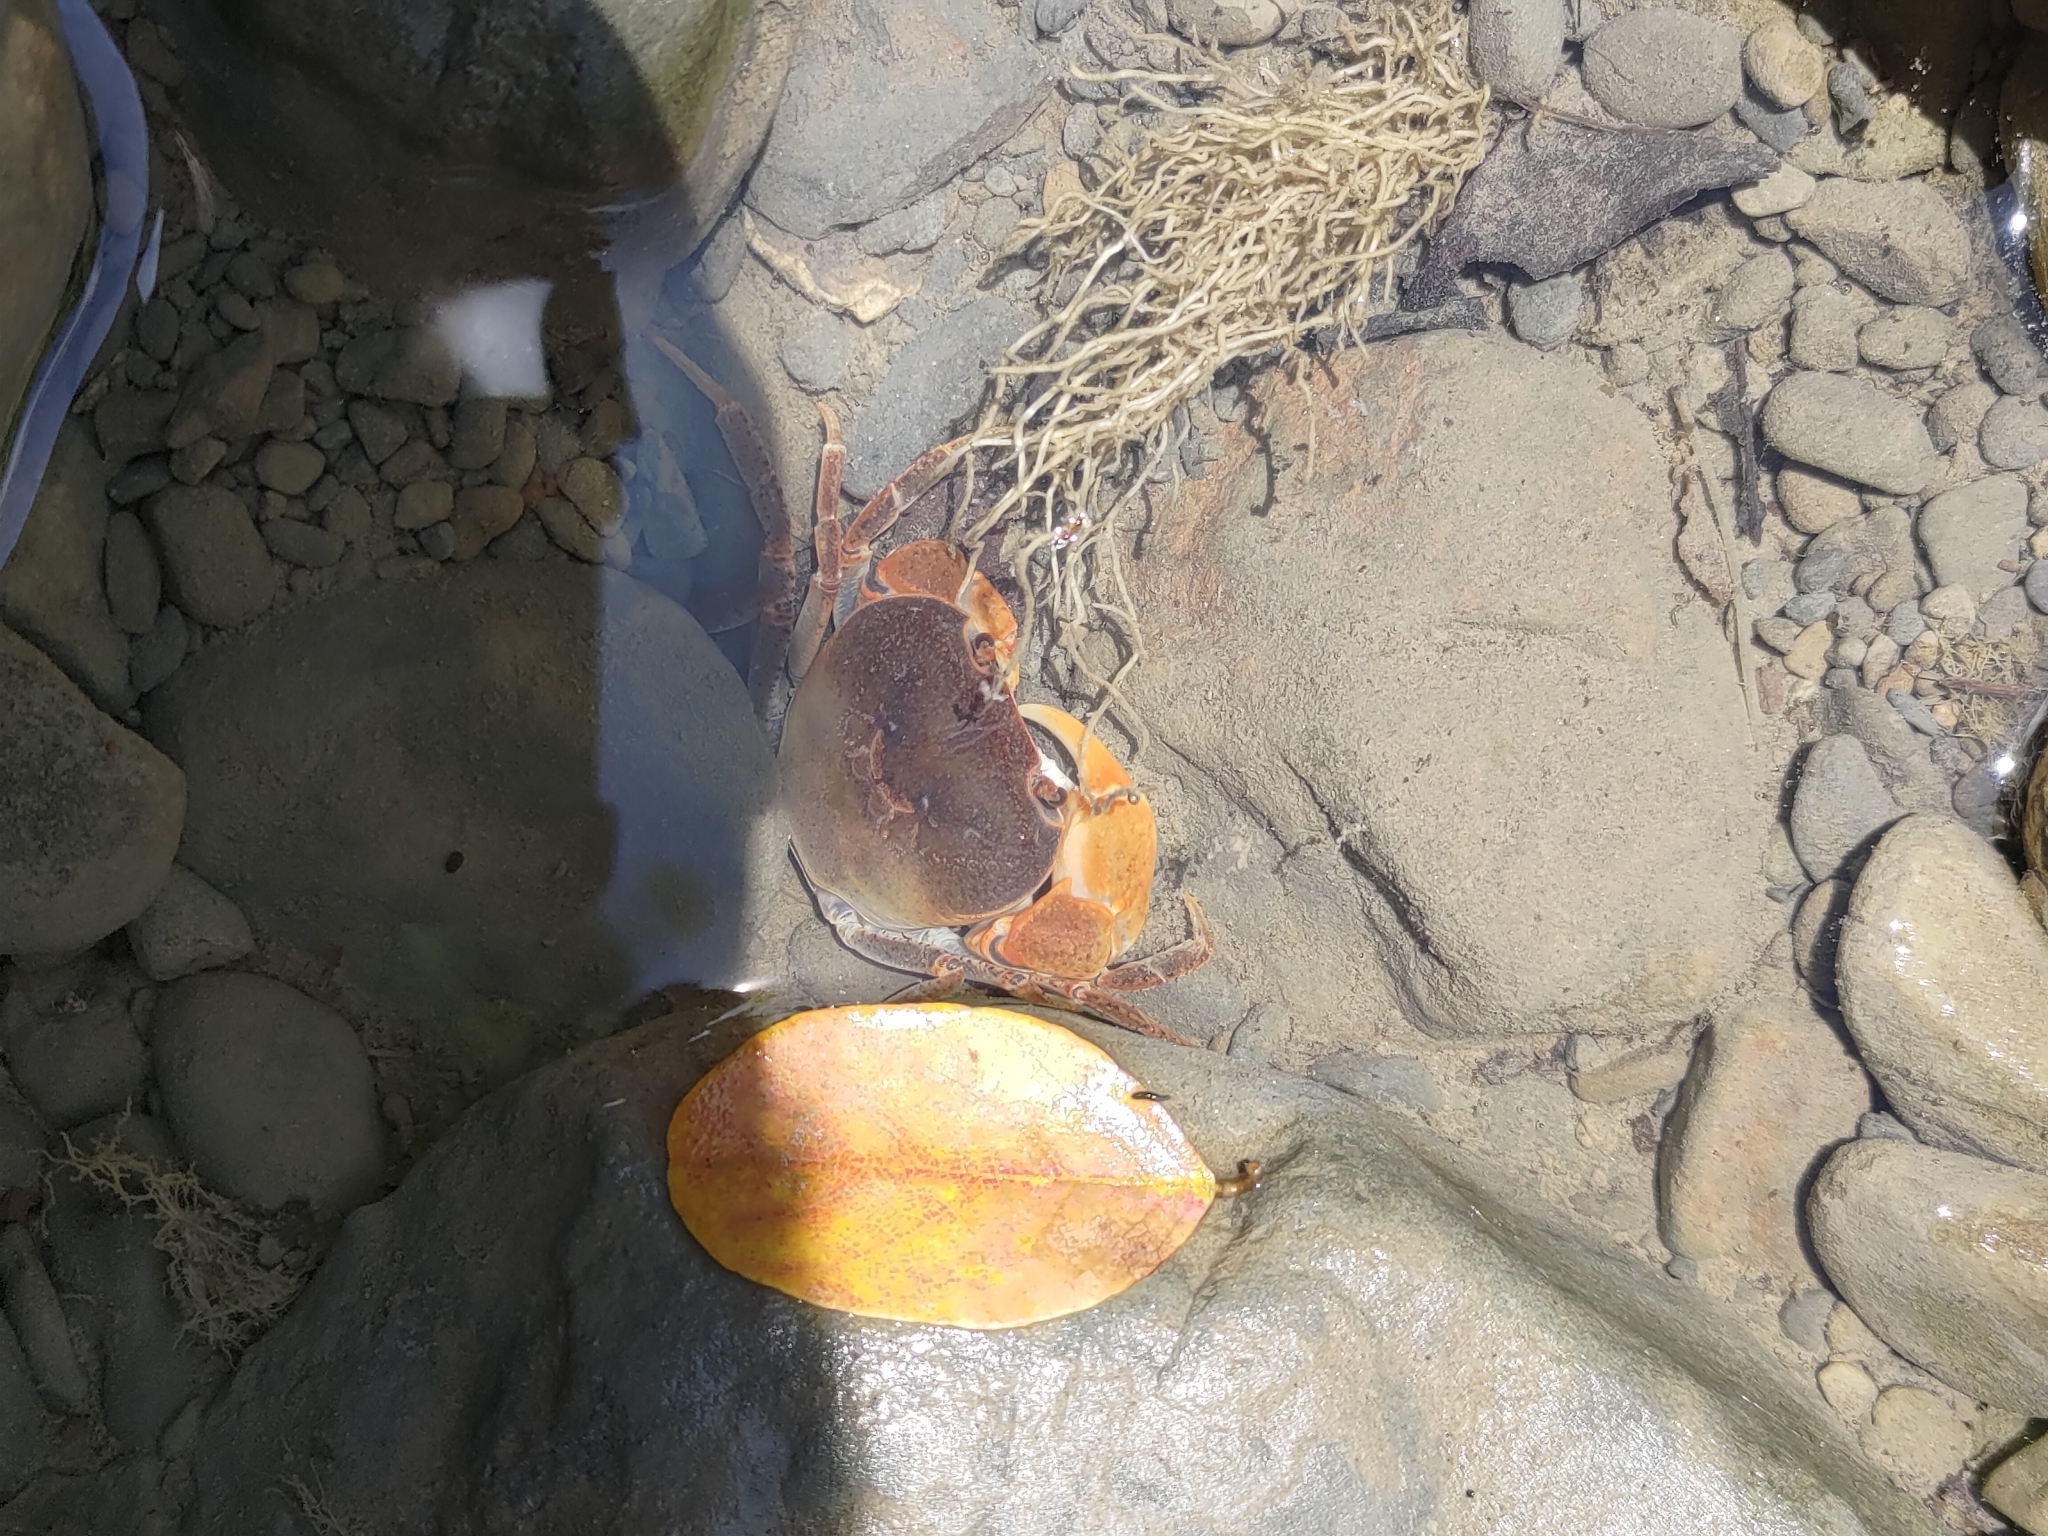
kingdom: Animalia
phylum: Arthropoda
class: Malacostraca
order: Decapoda
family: Potamidae
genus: Geothelphusa
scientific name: Geothelphusa tsayae
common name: She crab
